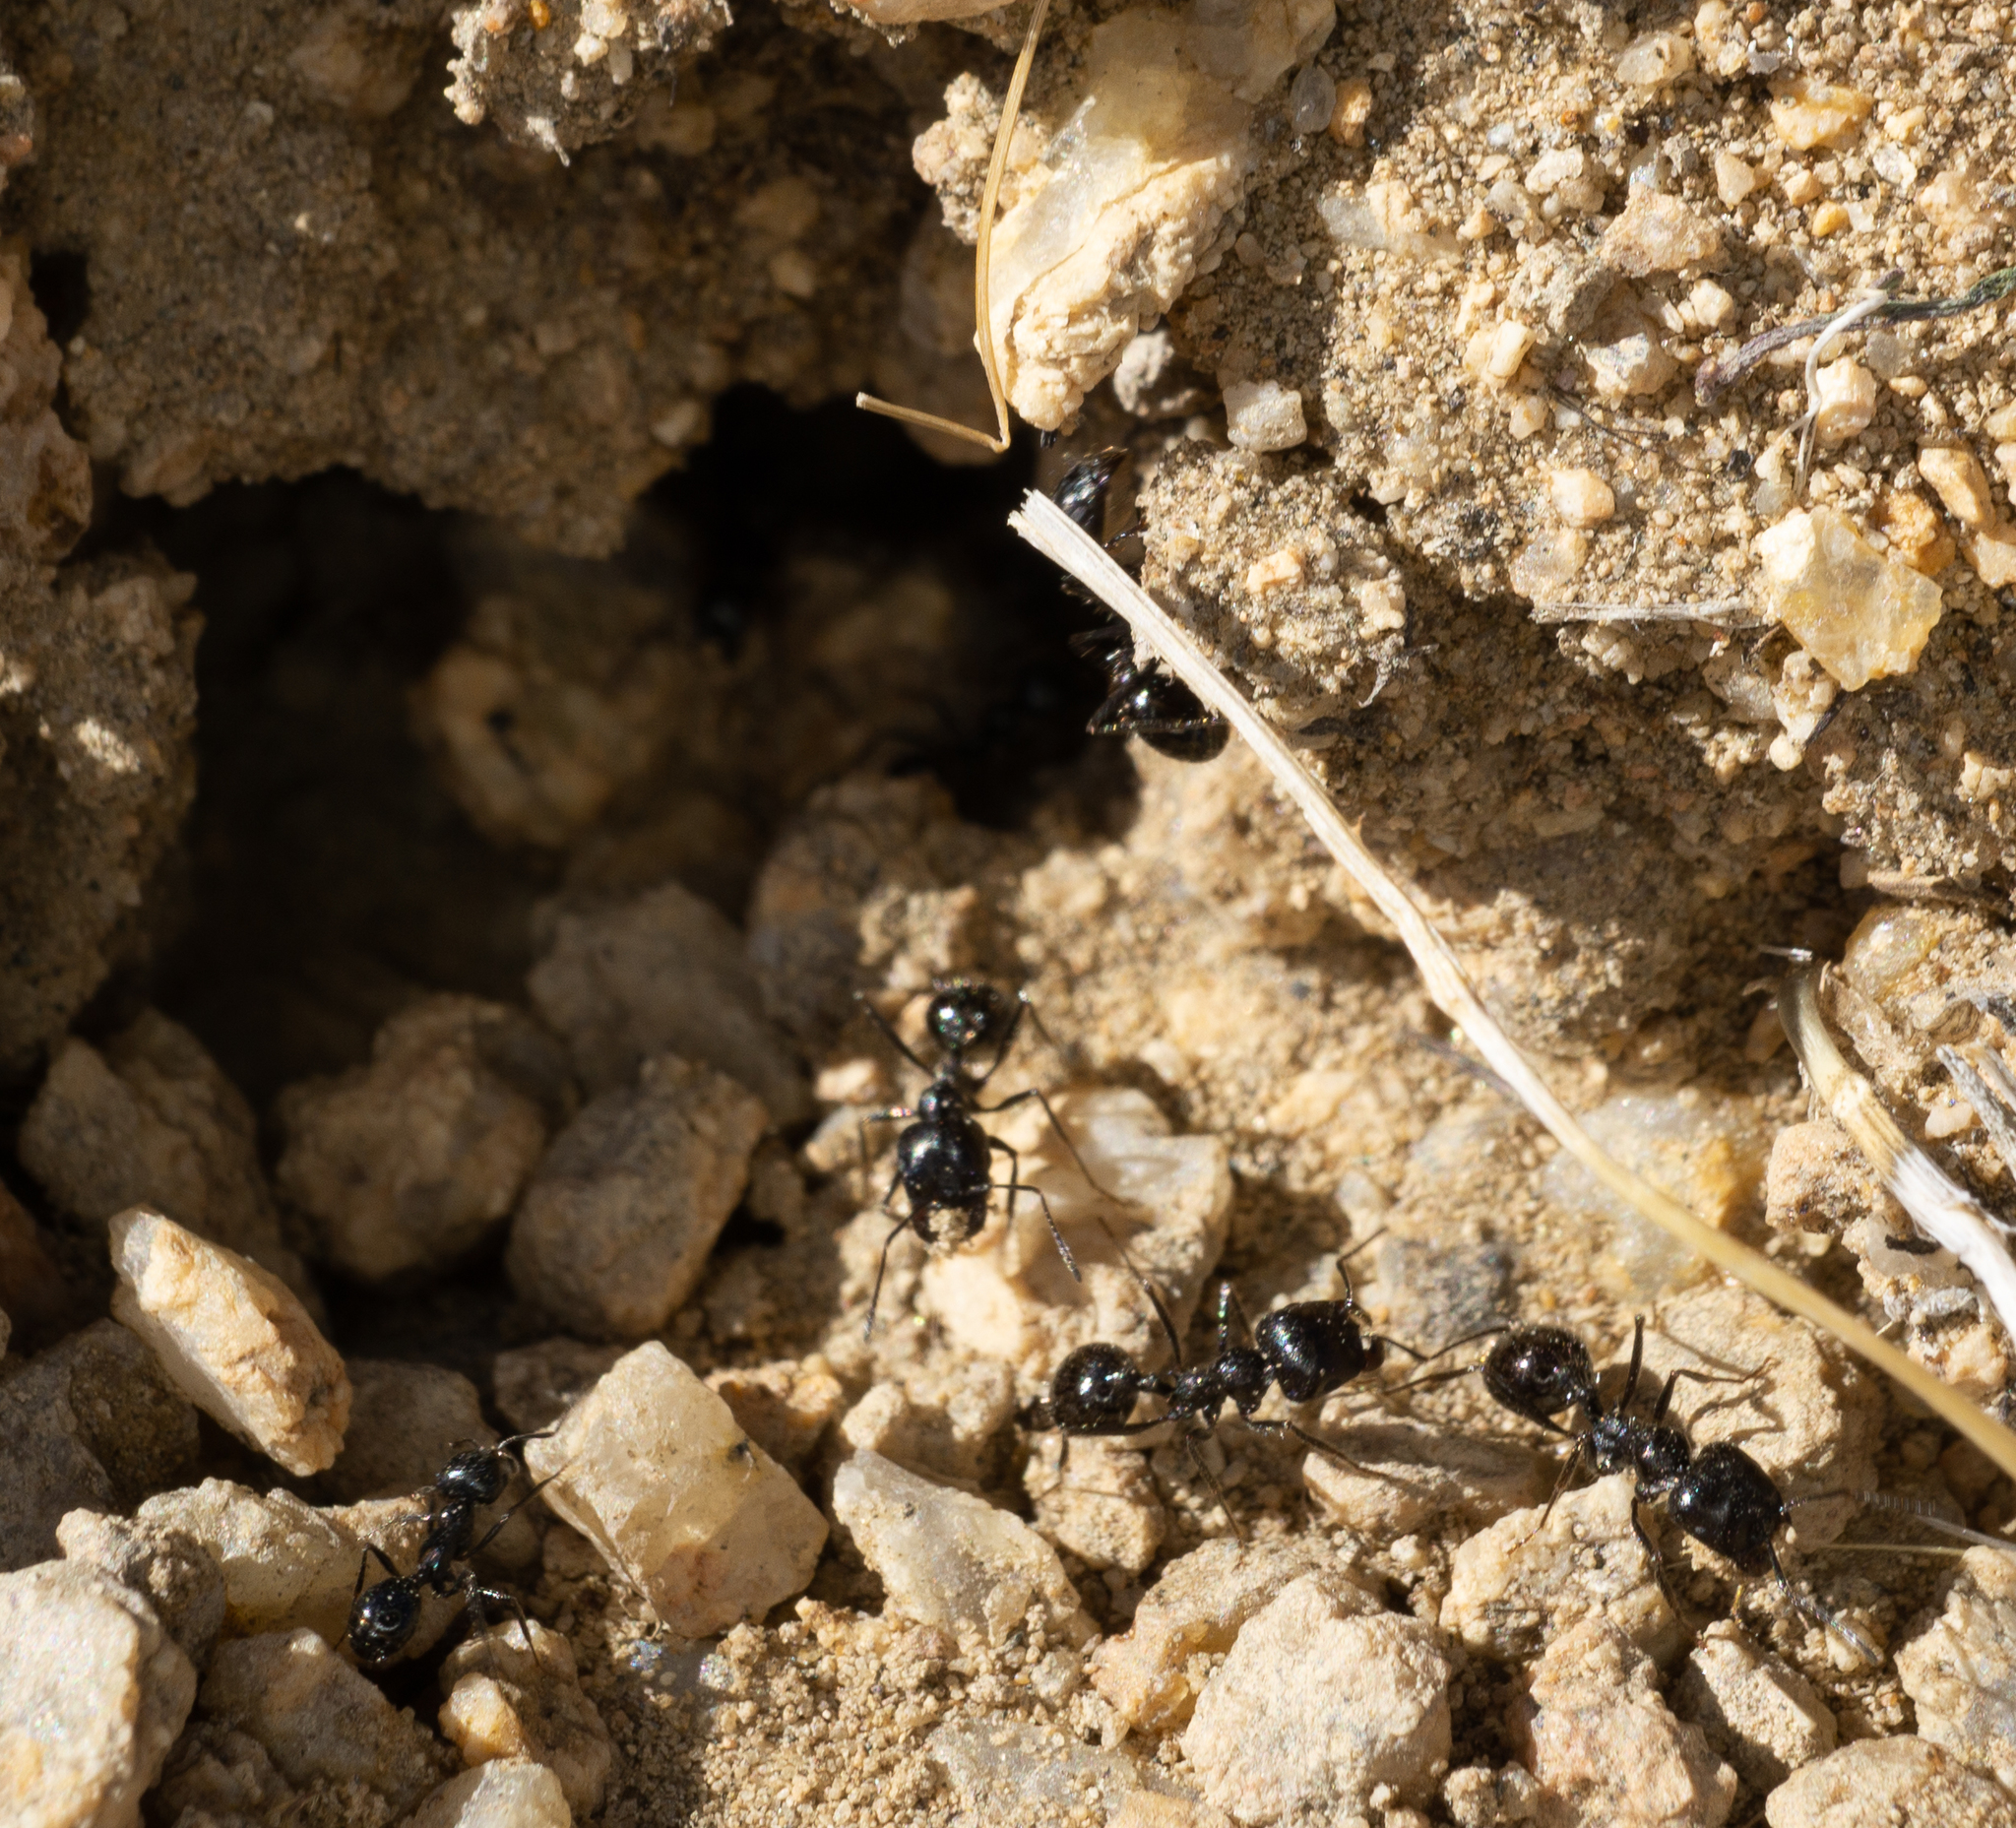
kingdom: Animalia
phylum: Arthropoda
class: Insecta
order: Hymenoptera
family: Formicidae
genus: Messor
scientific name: Messor pergandei
